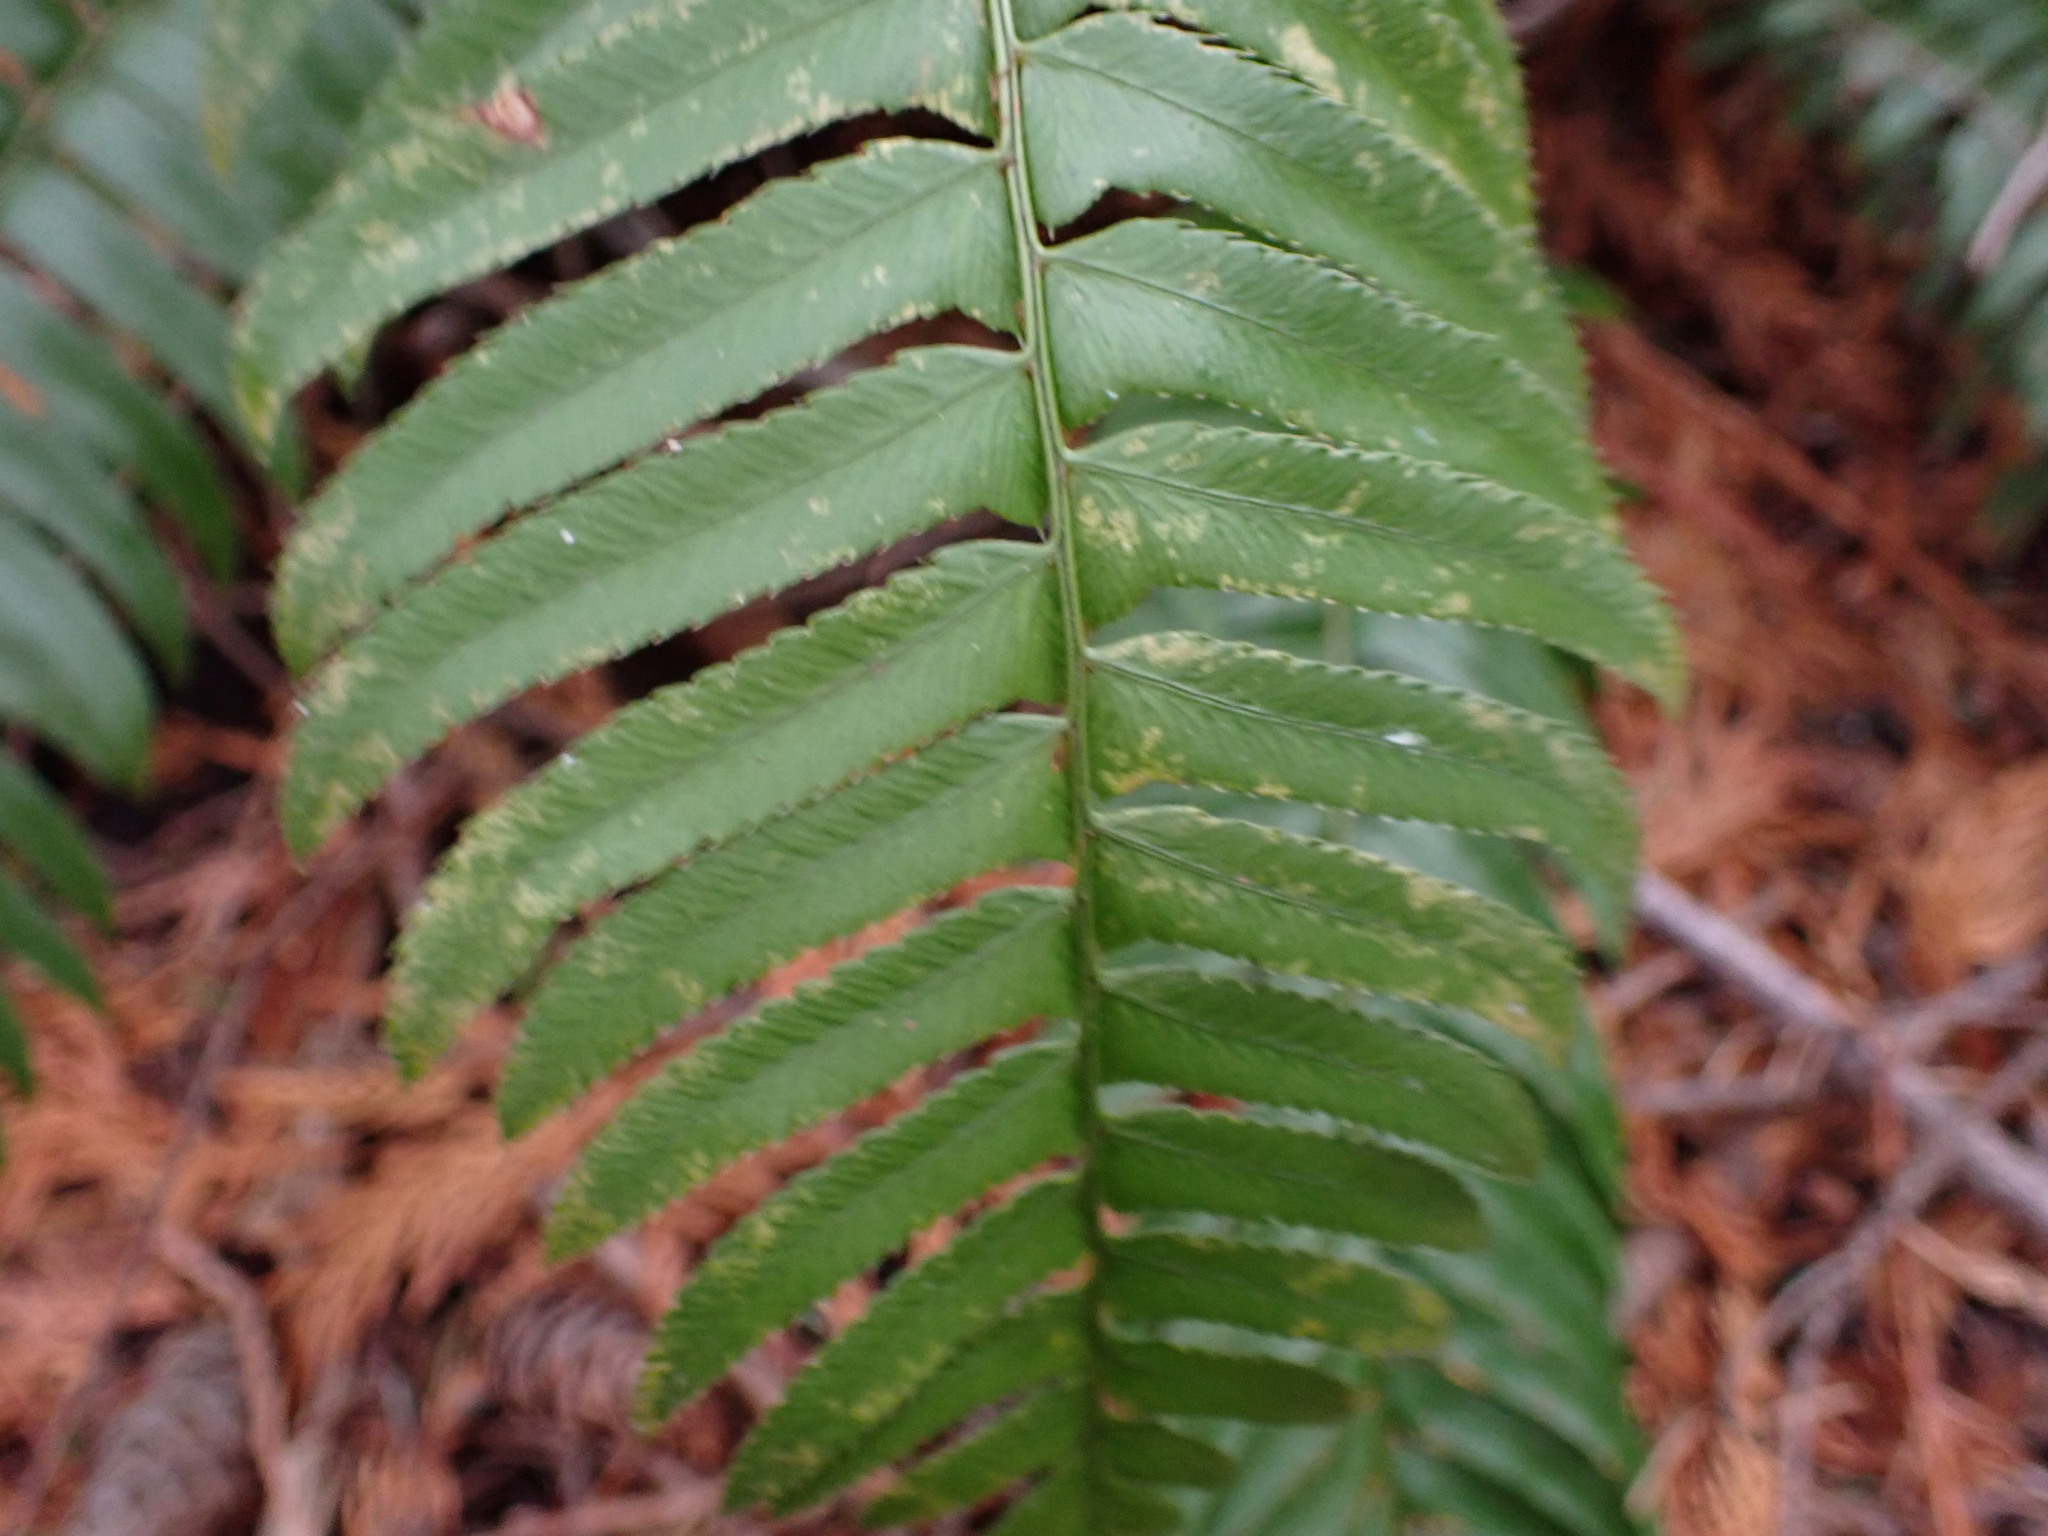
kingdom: Plantae
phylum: Tracheophyta
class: Polypodiopsida
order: Polypodiales
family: Dryopteridaceae
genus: Polystichum
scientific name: Polystichum munitum
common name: Western sword-fern
